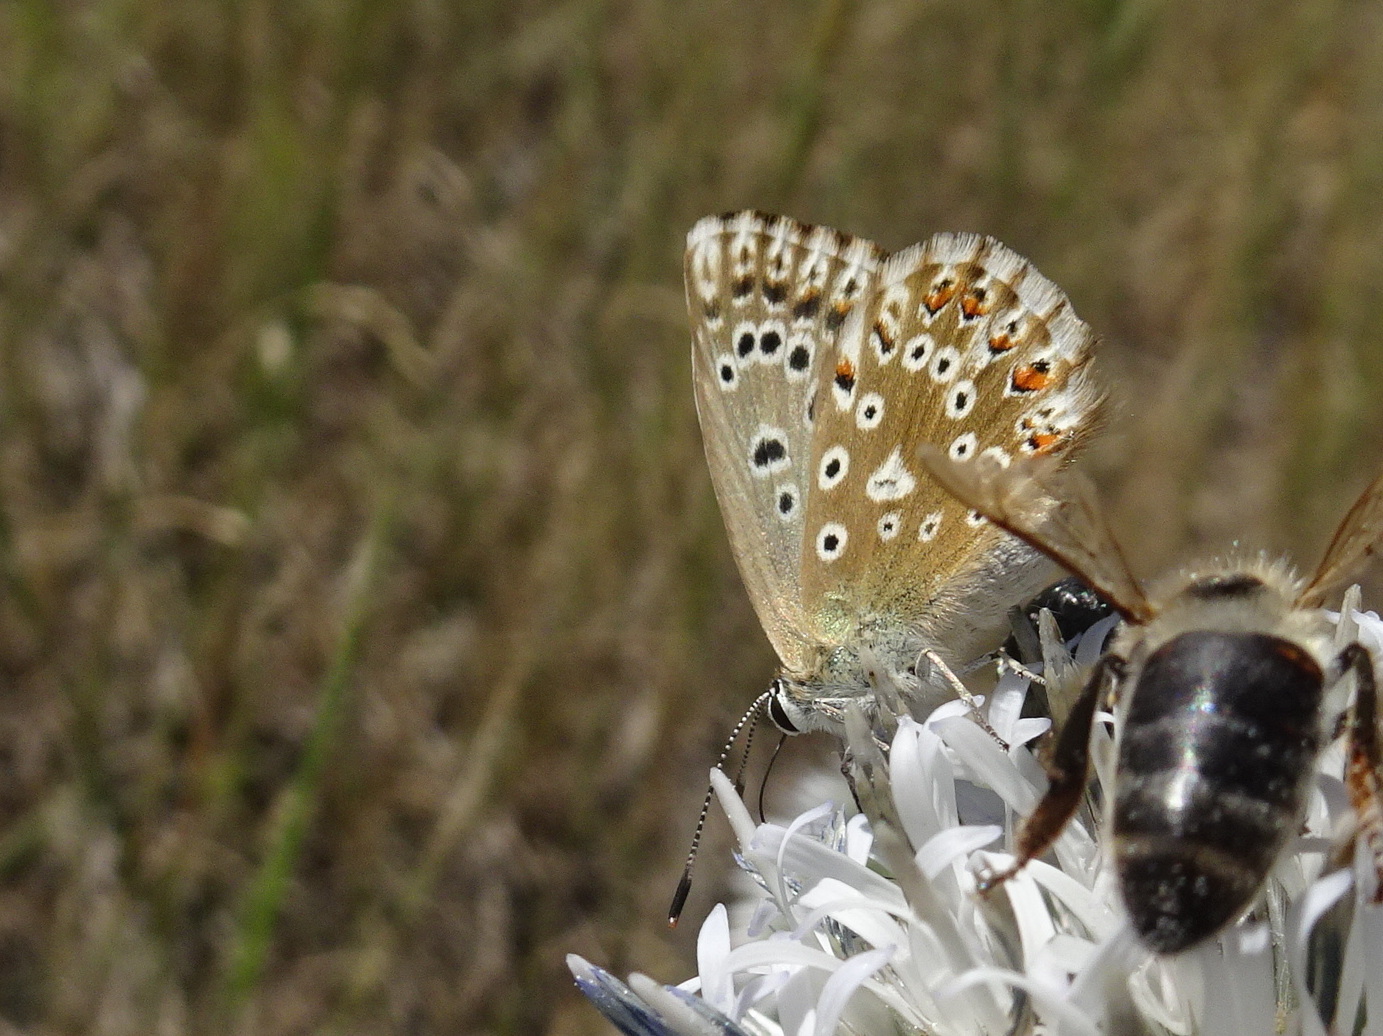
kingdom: Animalia
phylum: Arthropoda
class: Insecta
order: Lepidoptera
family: Lycaenidae
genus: Lysandra
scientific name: Lysandra coridon
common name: Chalkhill blue
